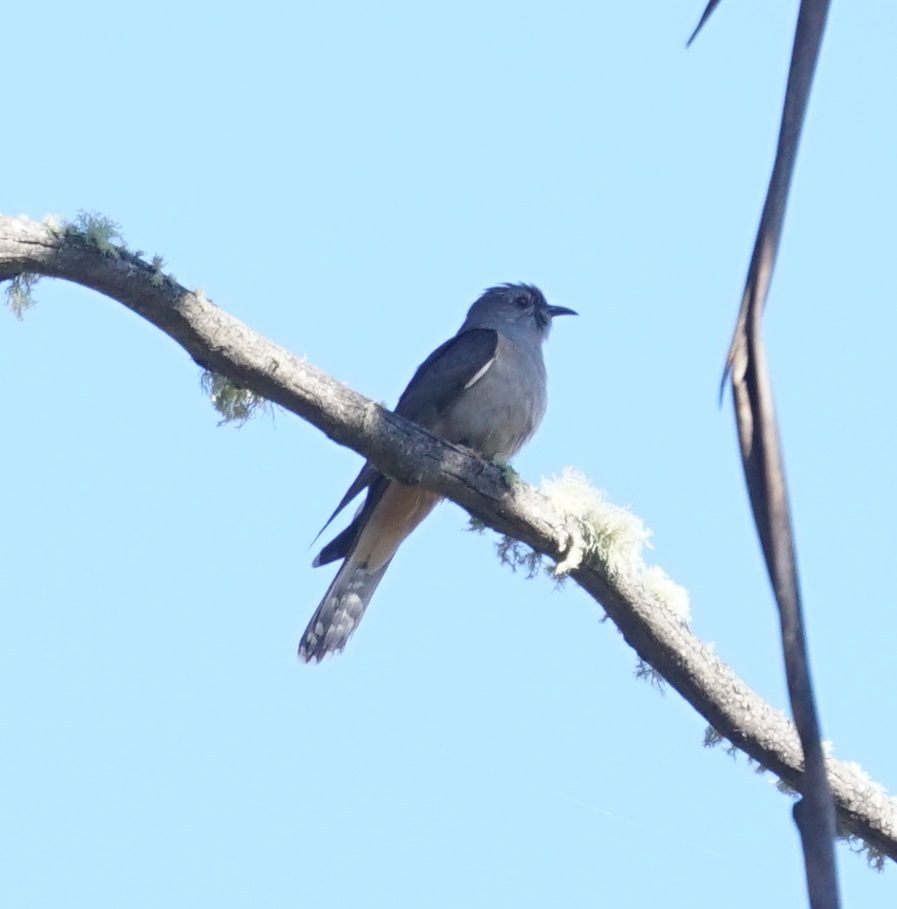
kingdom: Animalia
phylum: Chordata
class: Aves
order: Cuculiformes
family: Cuculidae
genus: Cacomantis
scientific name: Cacomantis variolosus
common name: Brush cuckoo
